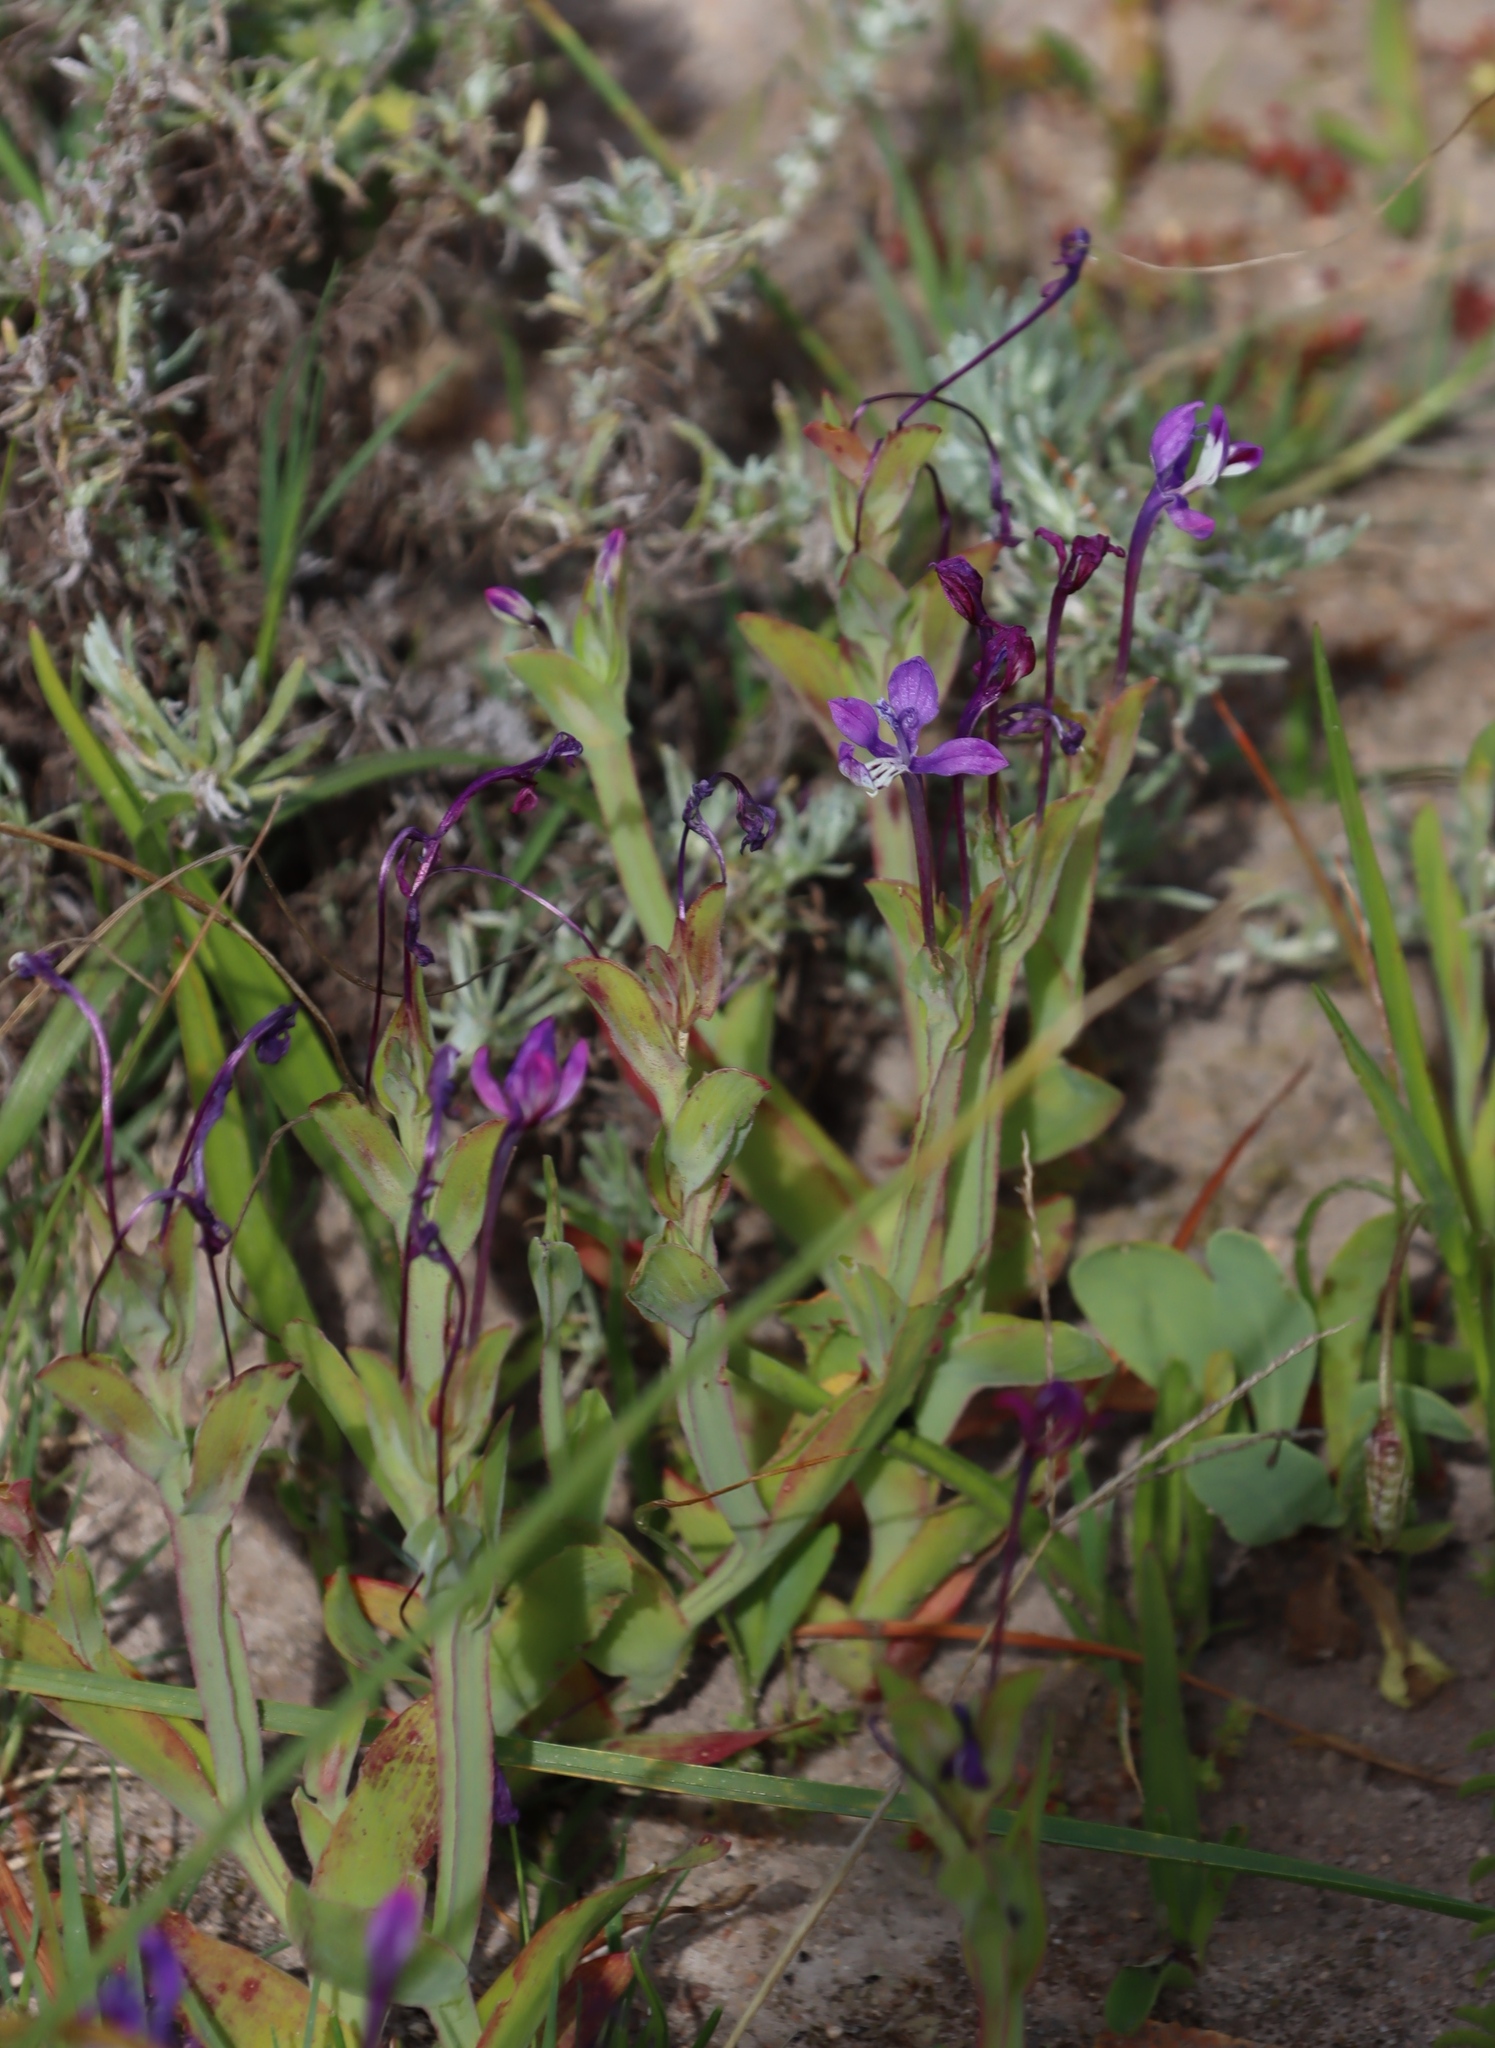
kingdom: Plantae
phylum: Tracheophyta
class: Liliopsida
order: Asparagales
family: Iridaceae
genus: Lapeirousia
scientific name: Lapeirousia jacquinii
